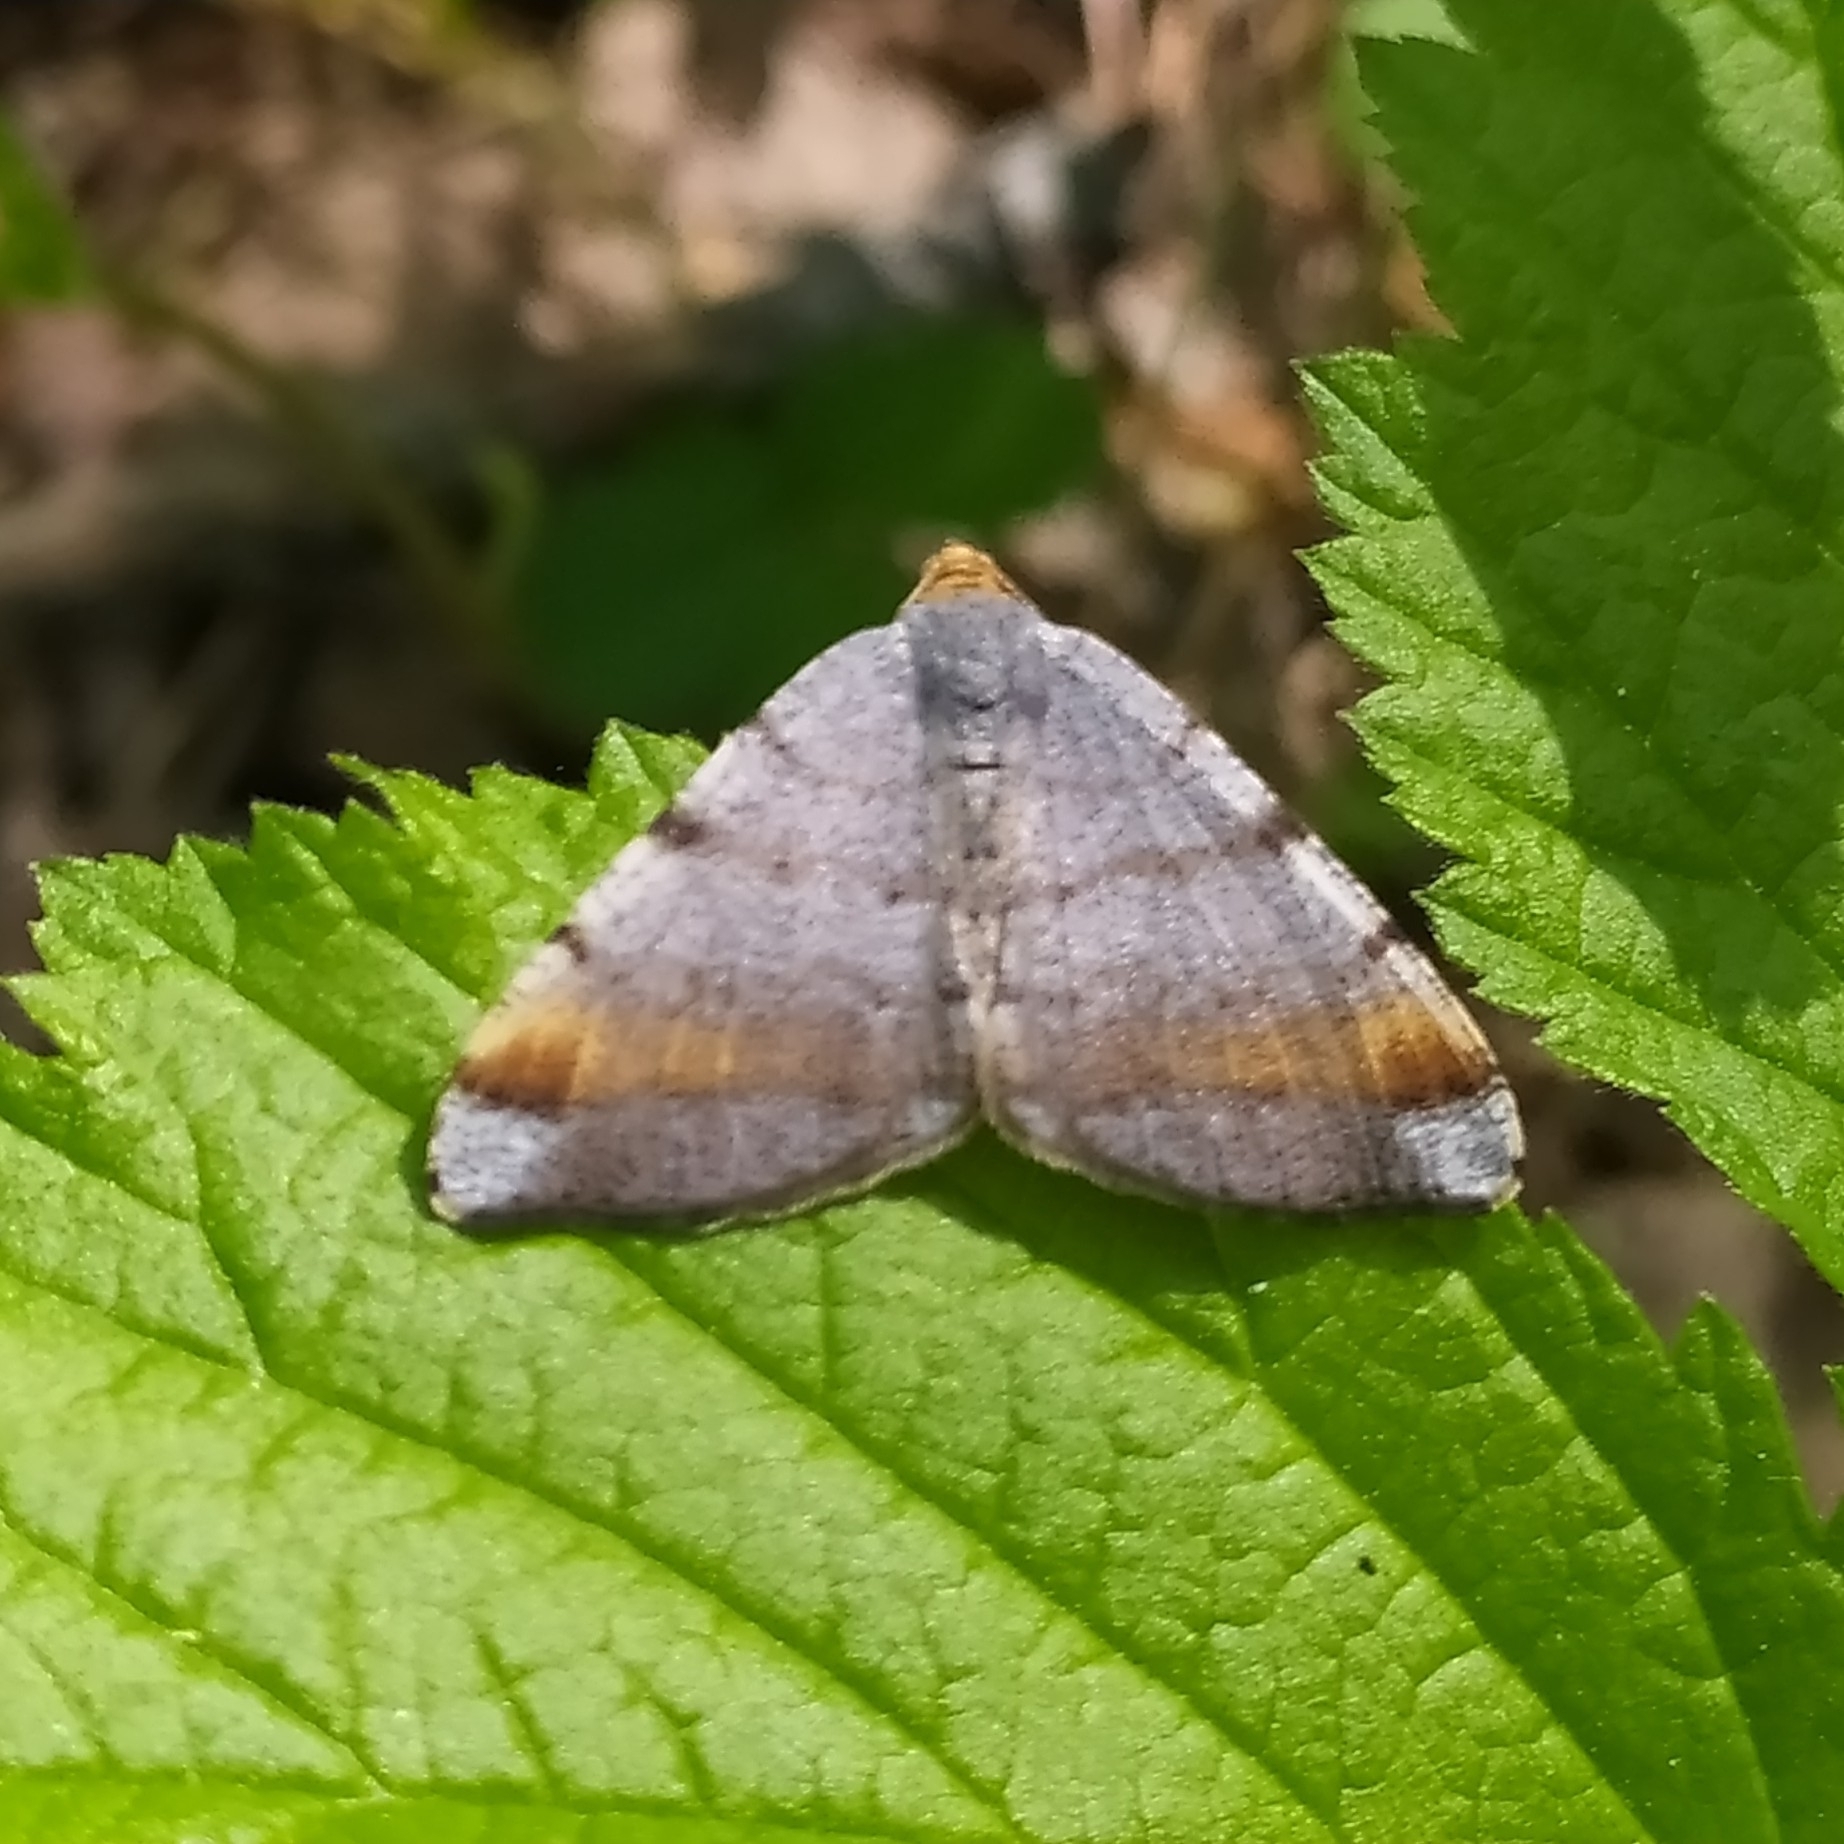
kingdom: Animalia
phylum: Arthropoda
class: Insecta
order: Lepidoptera
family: Geometridae
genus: Macaria
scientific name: Macaria liturata
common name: Tawny-barred angle
